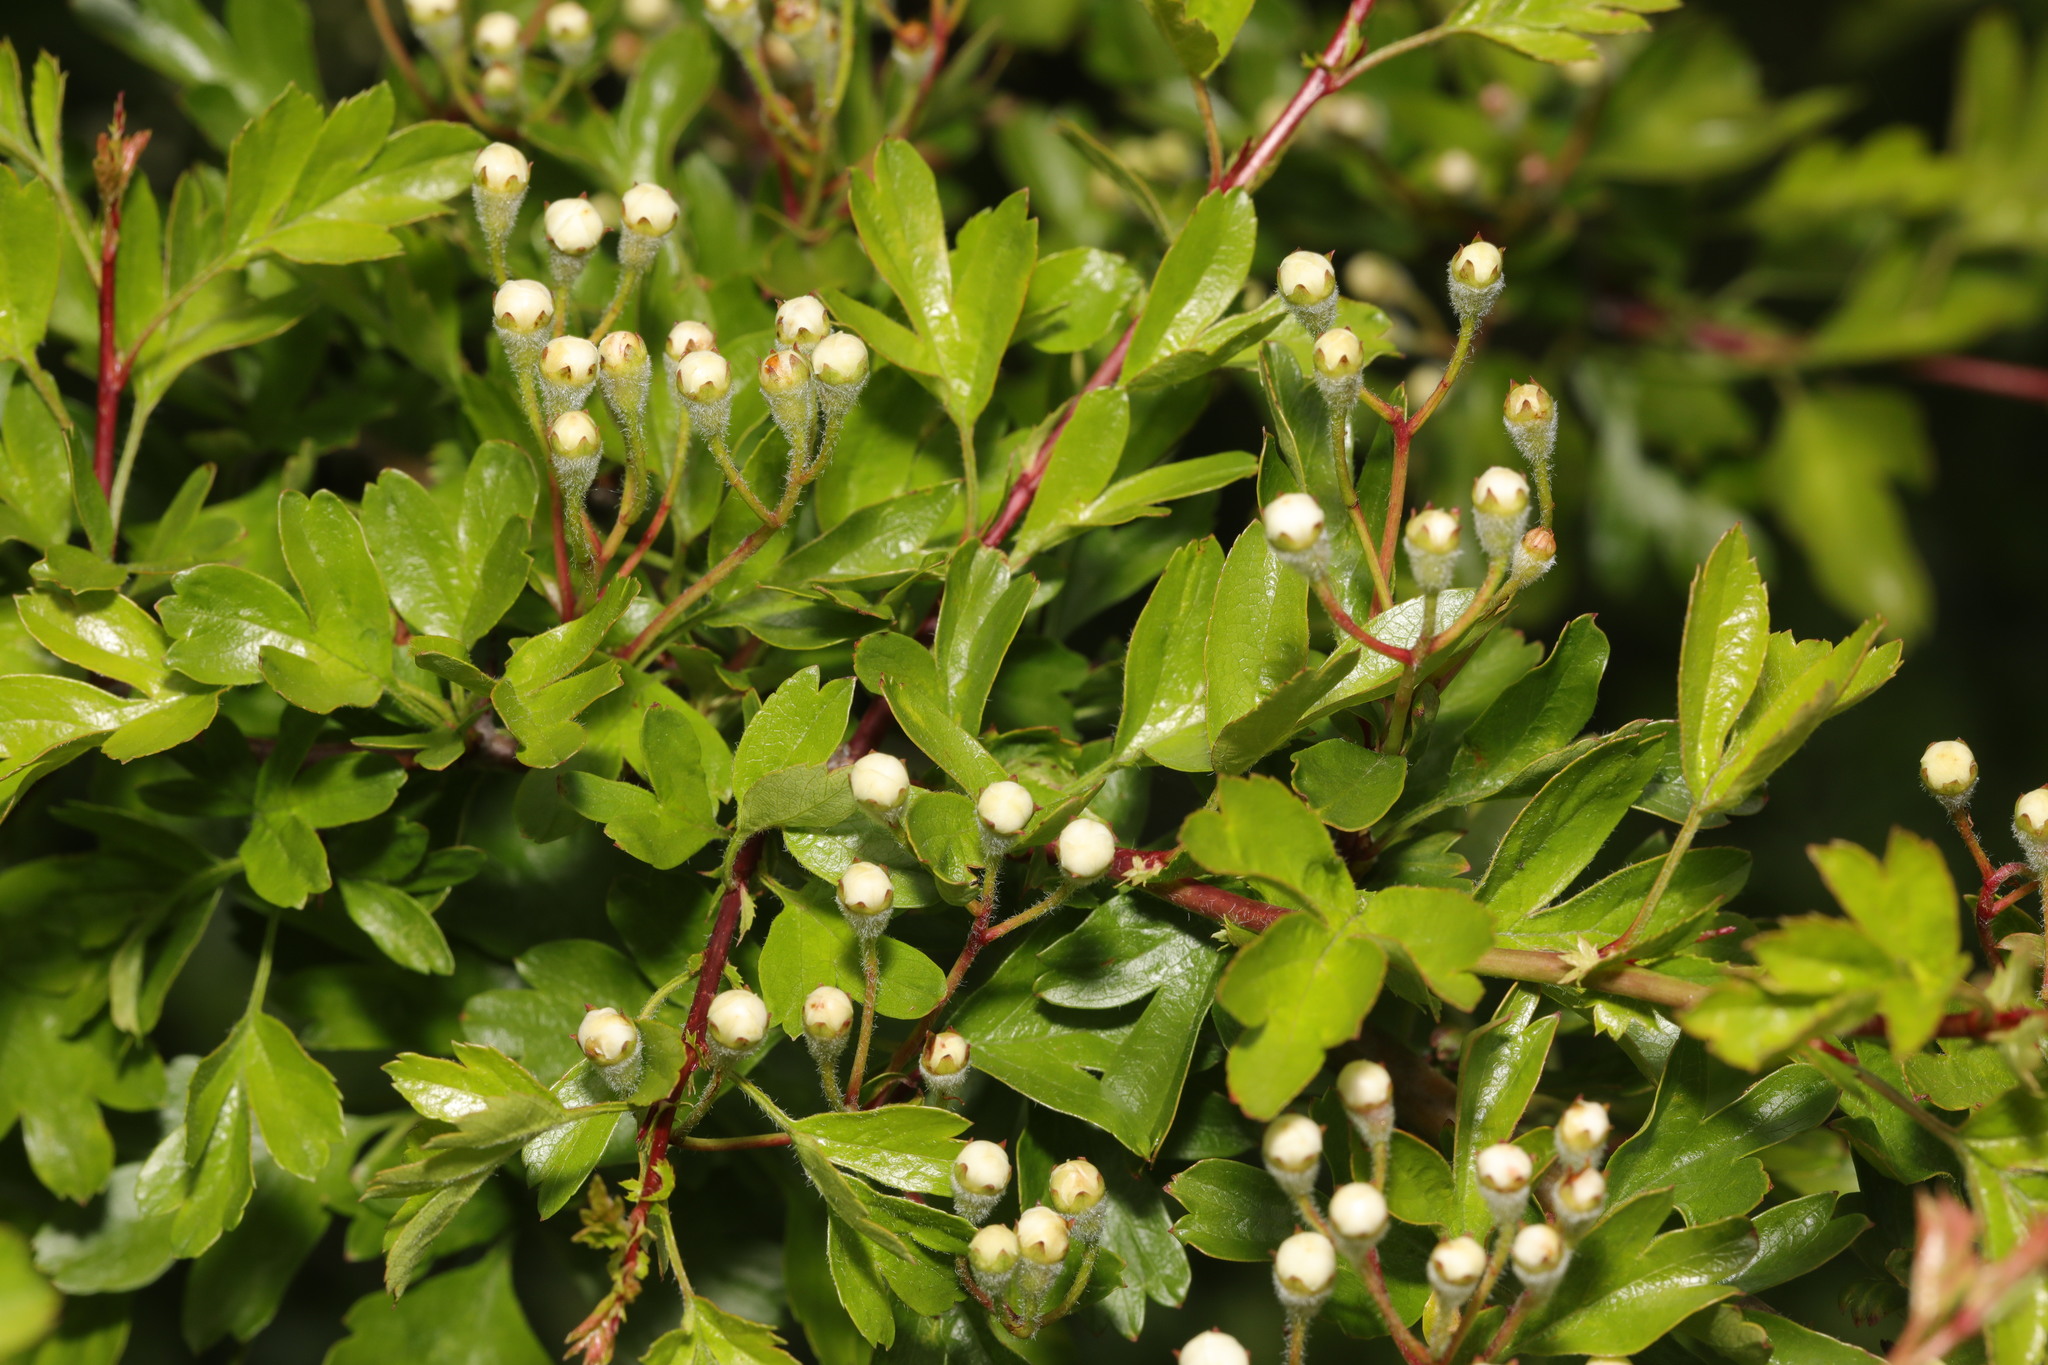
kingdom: Plantae
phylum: Tracheophyta
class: Magnoliopsida
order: Rosales
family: Rosaceae
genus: Crataegus
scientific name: Crataegus monogyna
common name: Hawthorn
